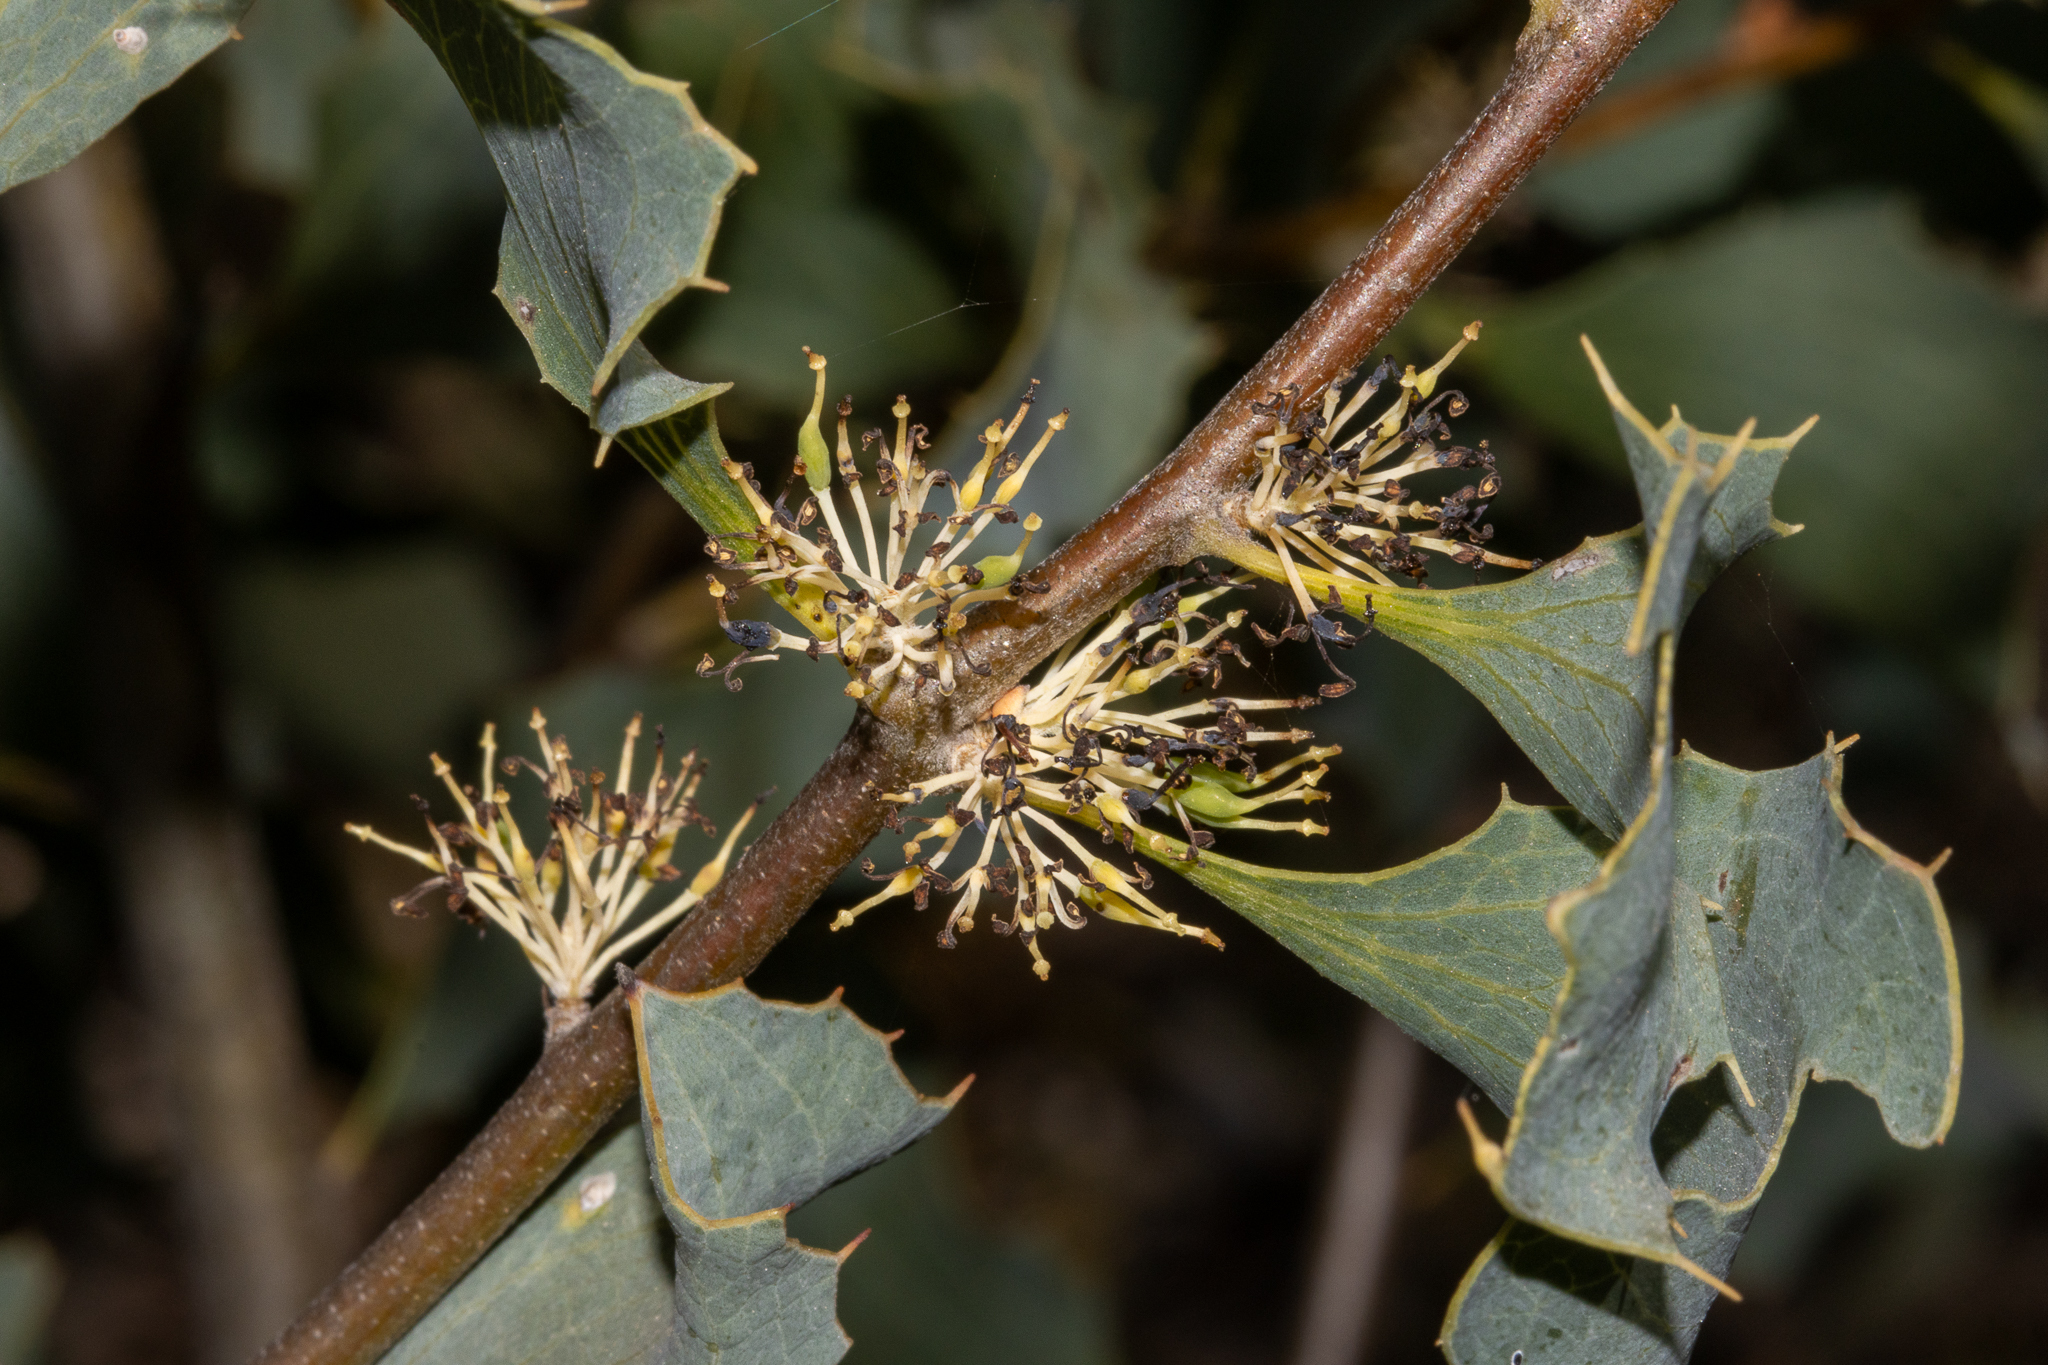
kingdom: Plantae
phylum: Tracheophyta
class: Magnoliopsida
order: Proteales
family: Proteaceae
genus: Hakea
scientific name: Hakea undulata
